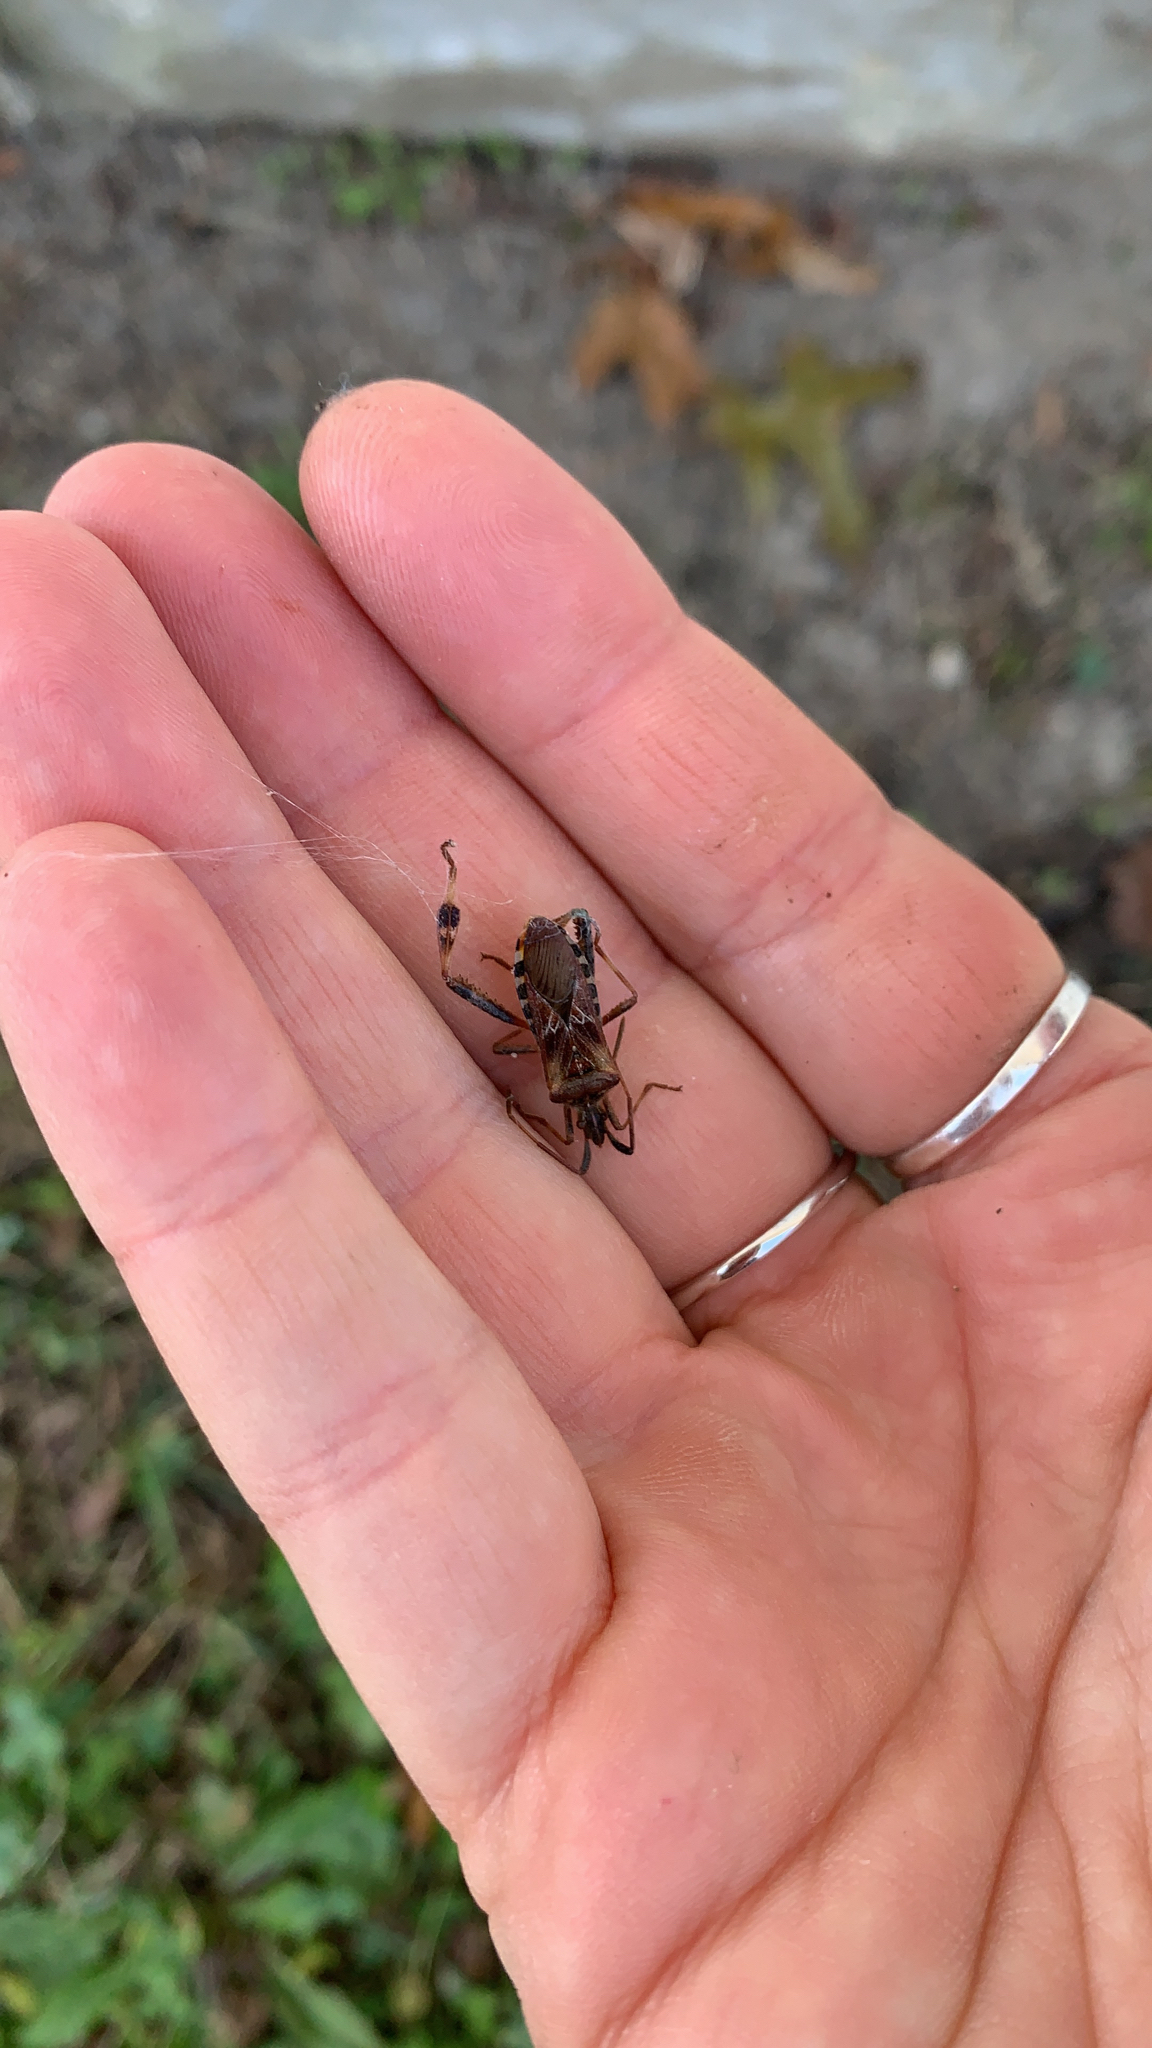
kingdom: Animalia
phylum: Arthropoda
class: Insecta
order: Hemiptera
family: Coreidae
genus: Leptoglossus
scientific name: Leptoglossus occidentalis
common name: Western conifer-seed bug
